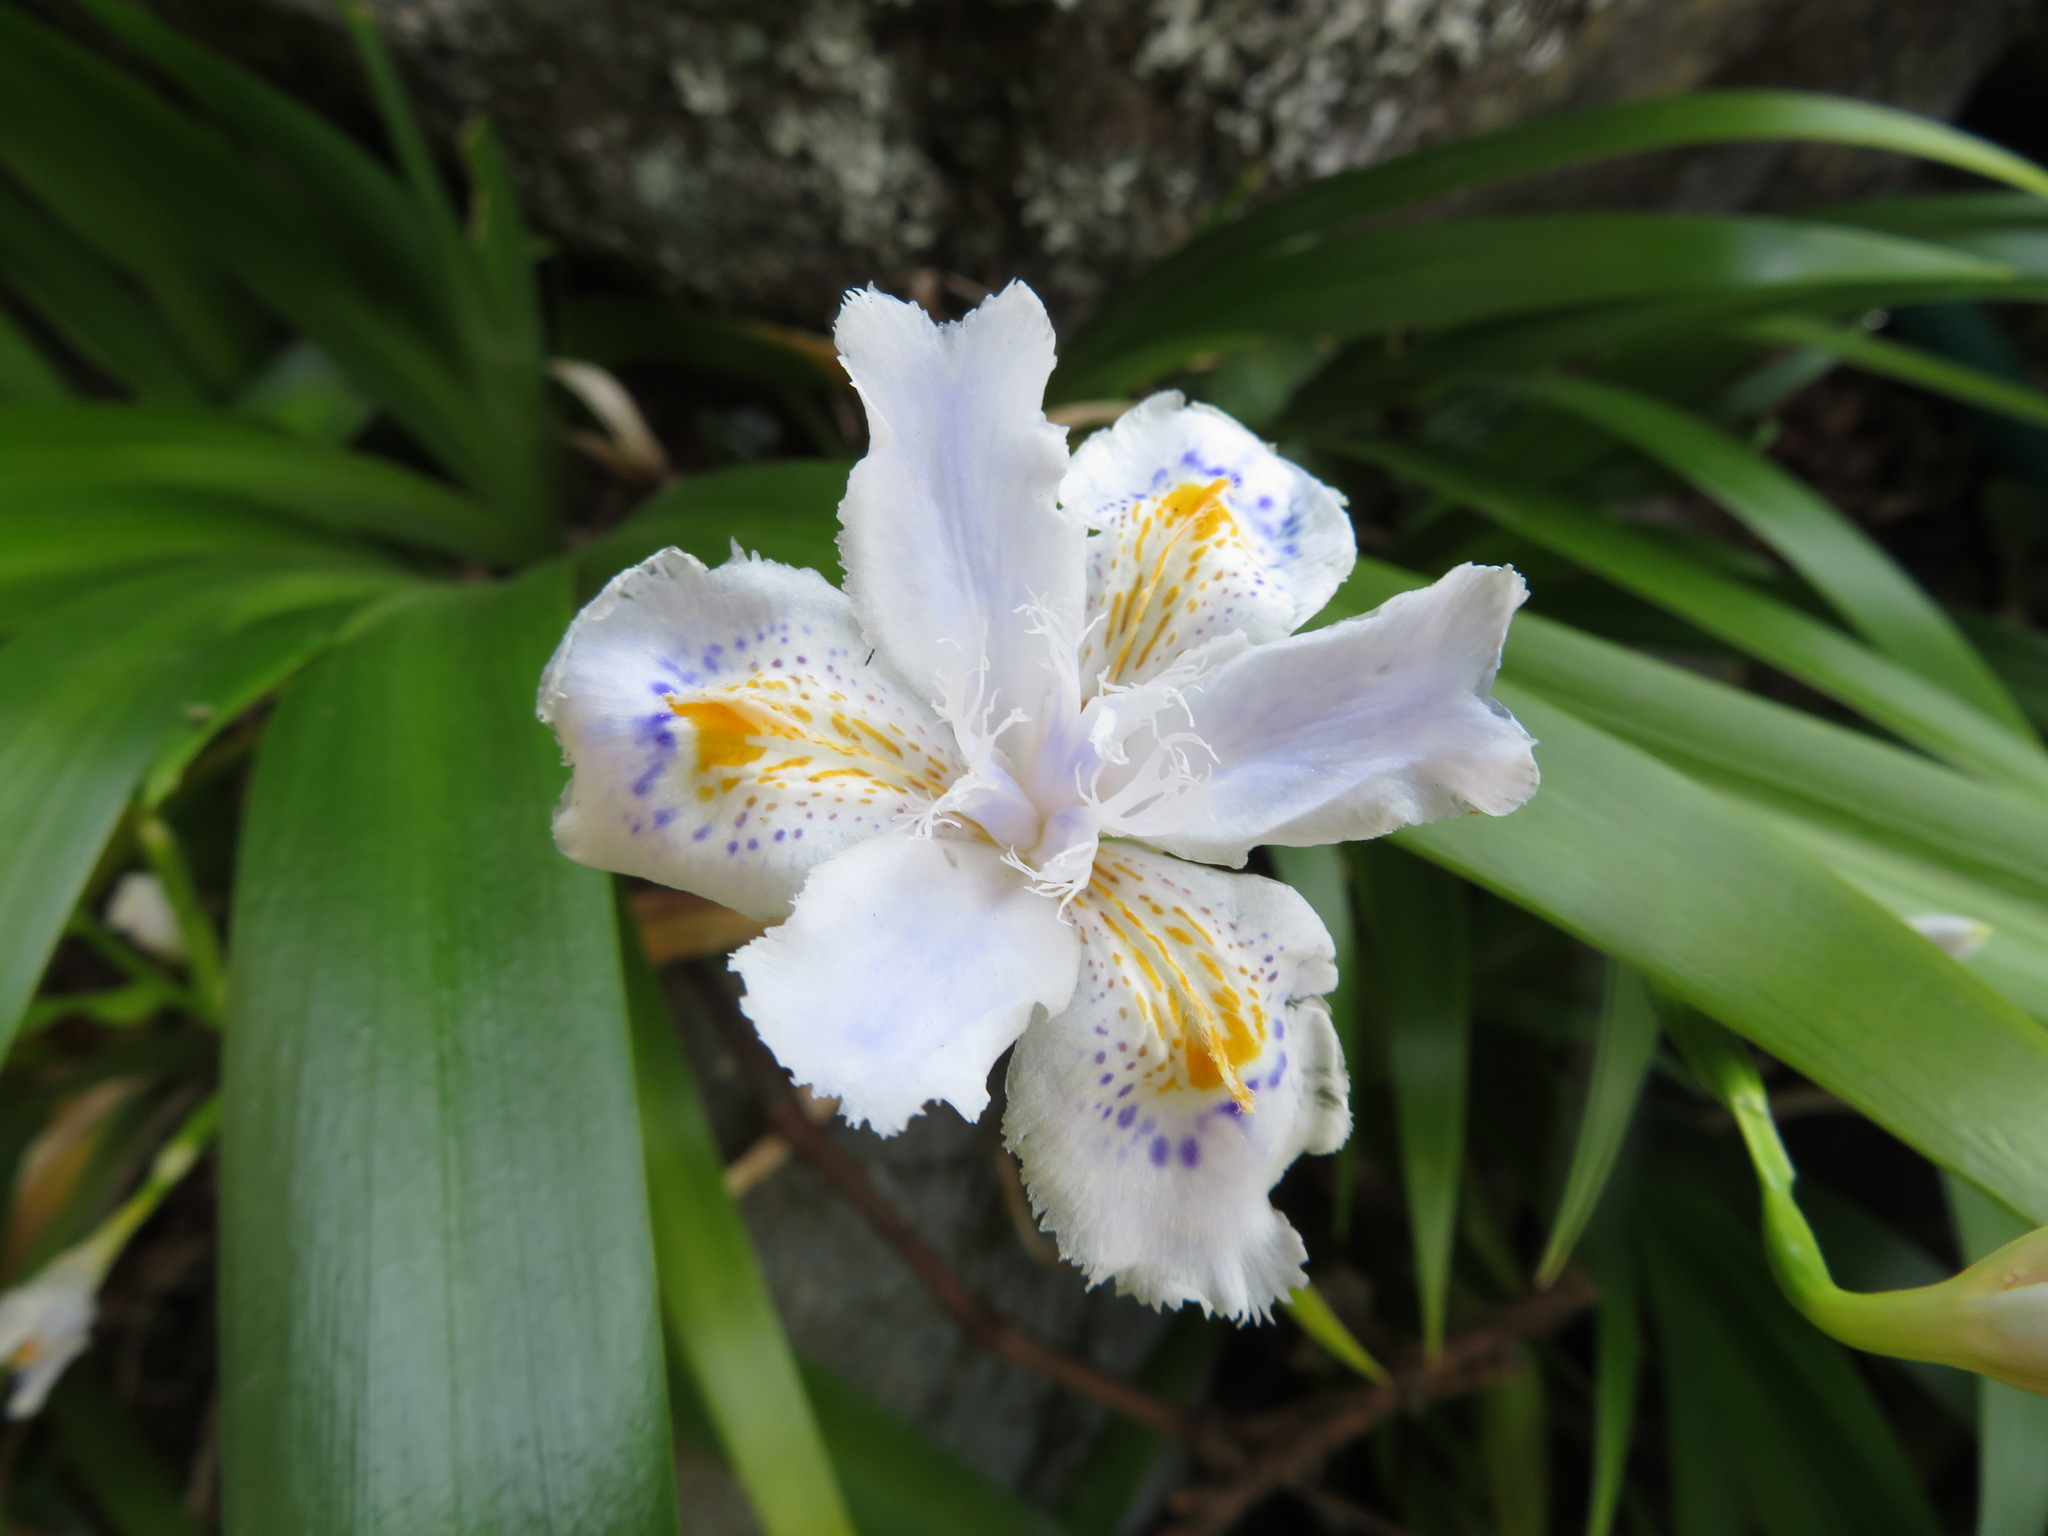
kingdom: Plantae
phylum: Tracheophyta
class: Liliopsida
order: Asparagales
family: Iridaceae
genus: Iris
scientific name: Iris japonica
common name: Butterfly-flower
